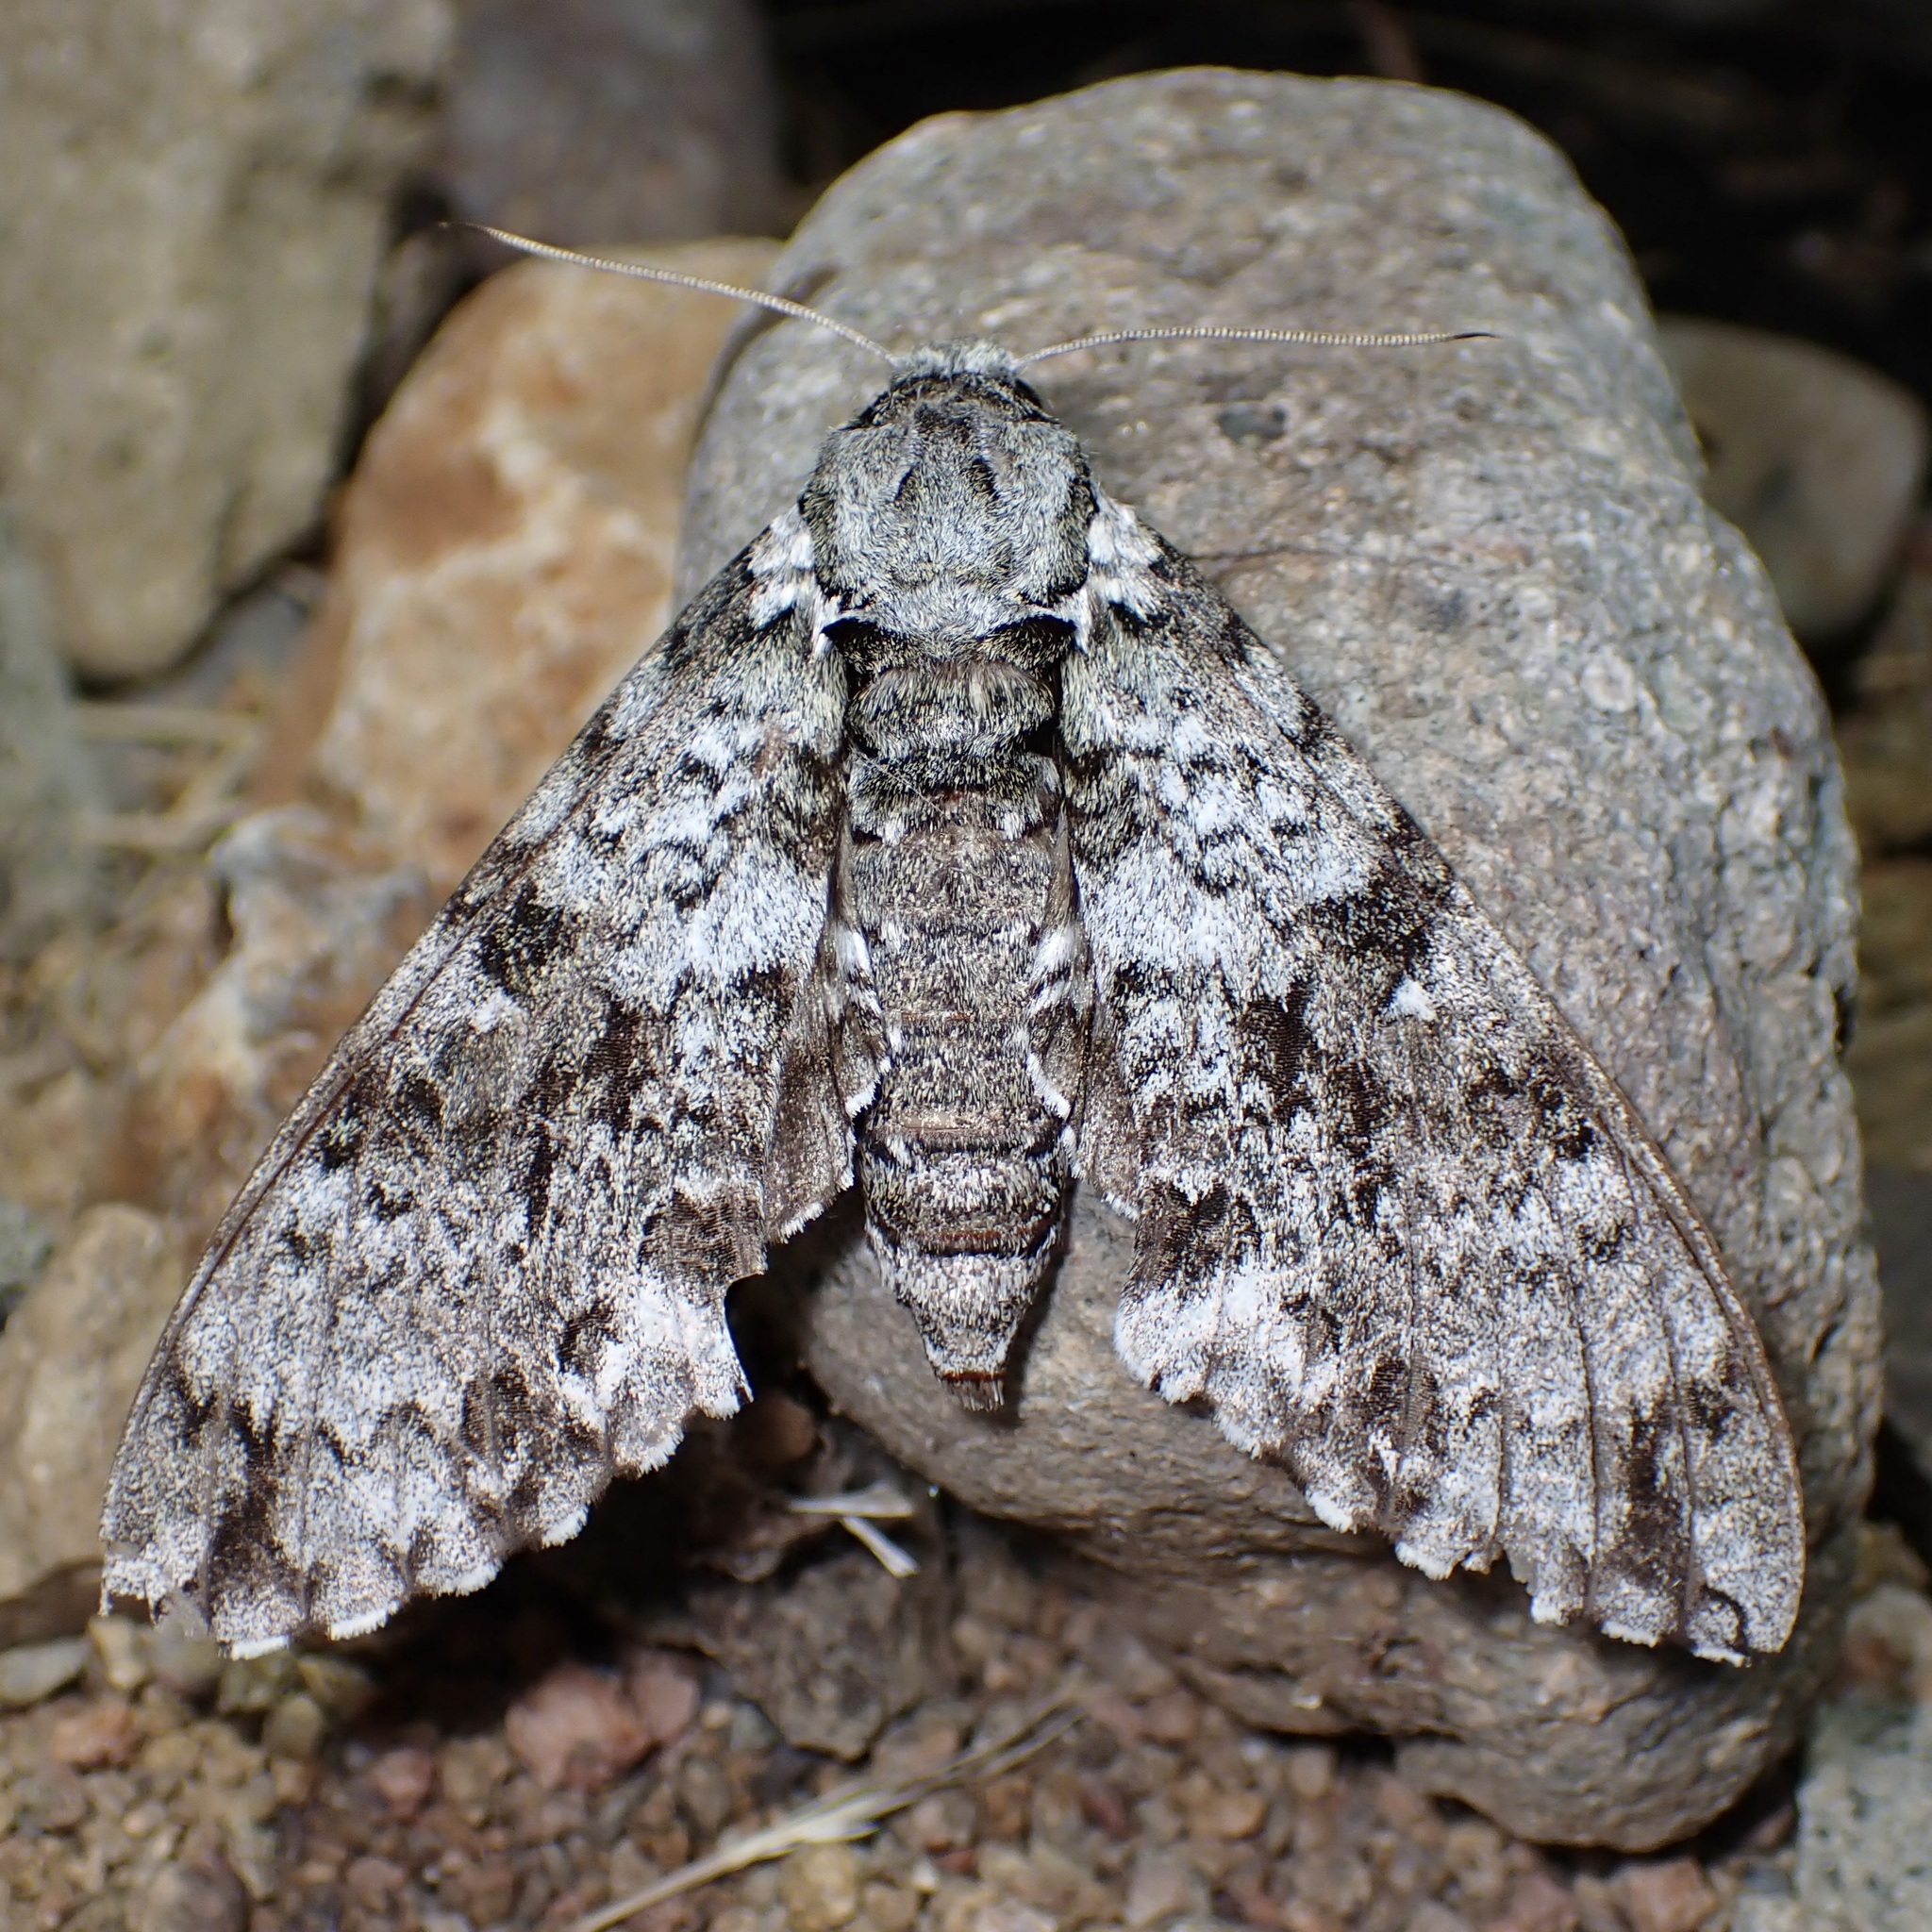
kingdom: Animalia
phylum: Arthropoda
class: Insecta
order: Lepidoptera
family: Sphingidae
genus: Manduca
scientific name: Manduca florestan
